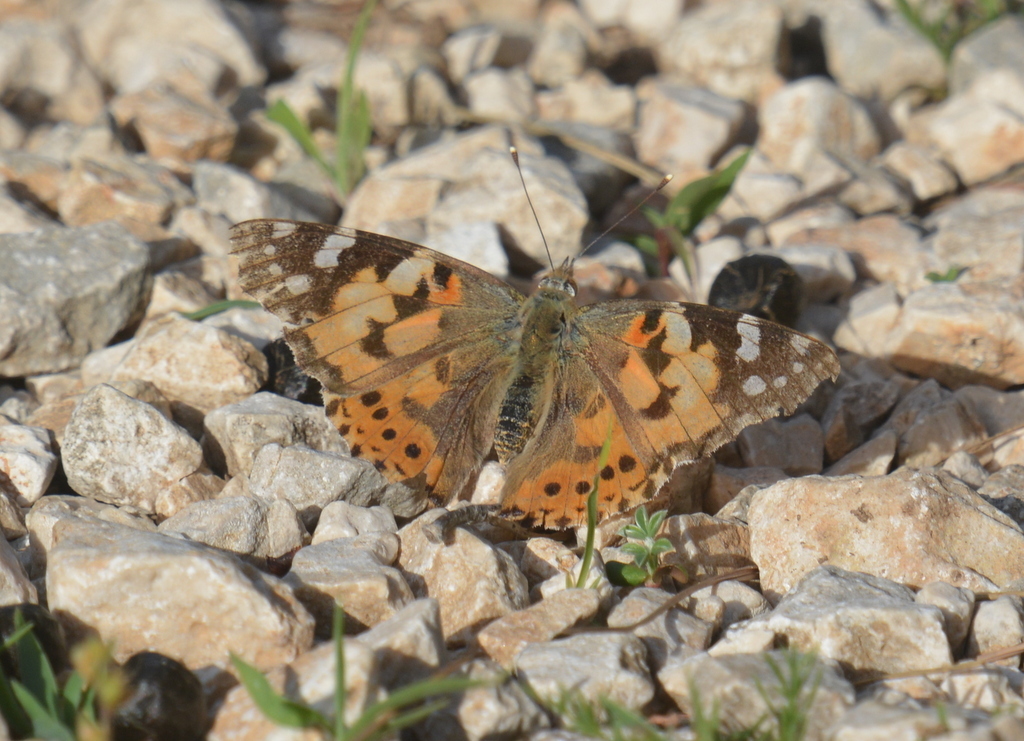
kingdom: Animalia
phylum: Arthropoda
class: Insecta
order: Lepidoptera
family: Nymphalidae
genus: Vanessa
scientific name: Vanessa cardui
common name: Painted lady
